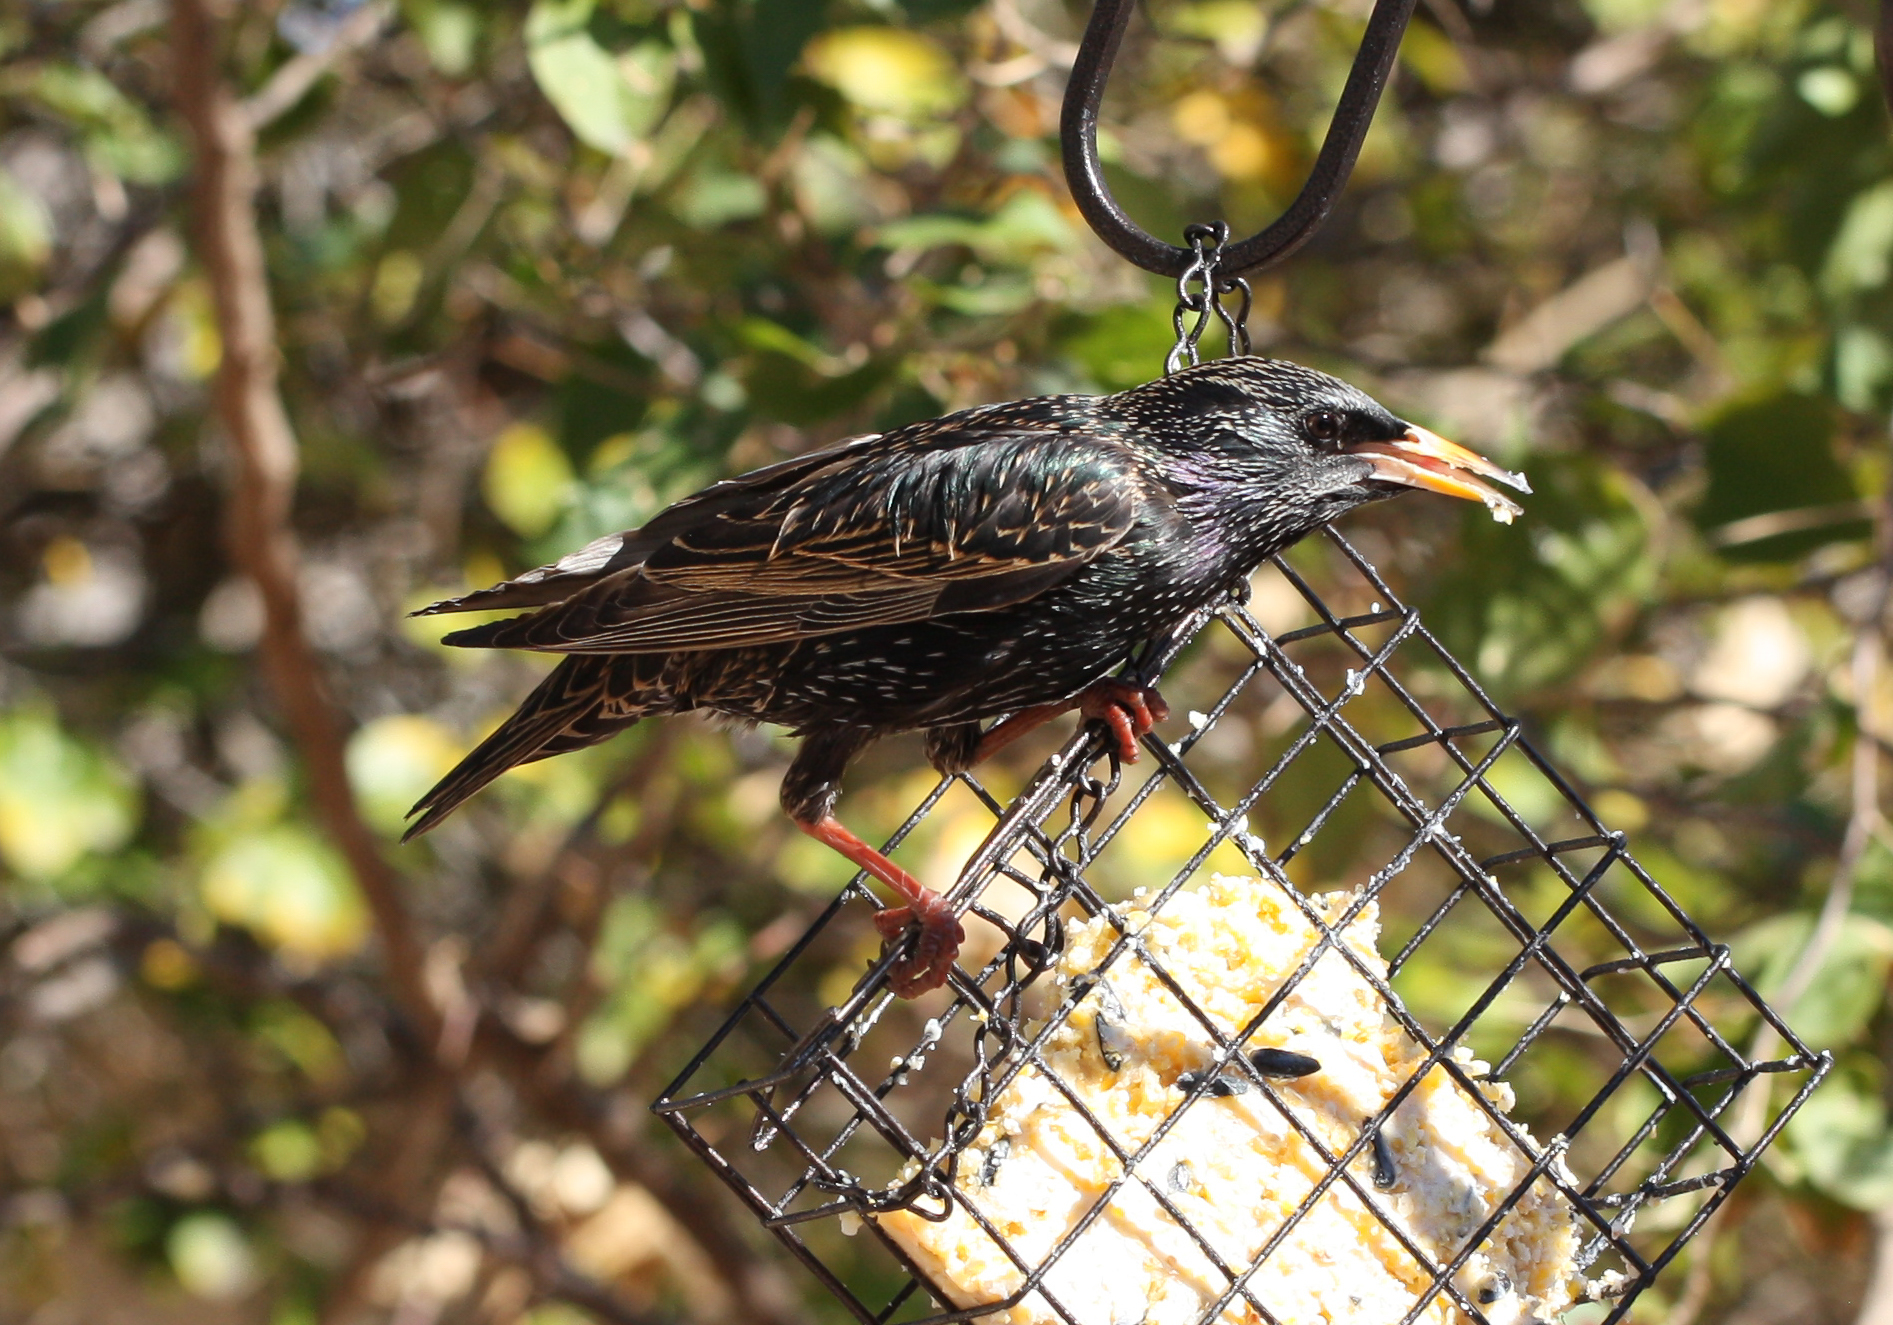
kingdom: Animalia
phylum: Chordata
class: Aves
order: Passeriformes
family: Sturnidae
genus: Sturnus
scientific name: Sturnus vulgaris
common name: Common starling
